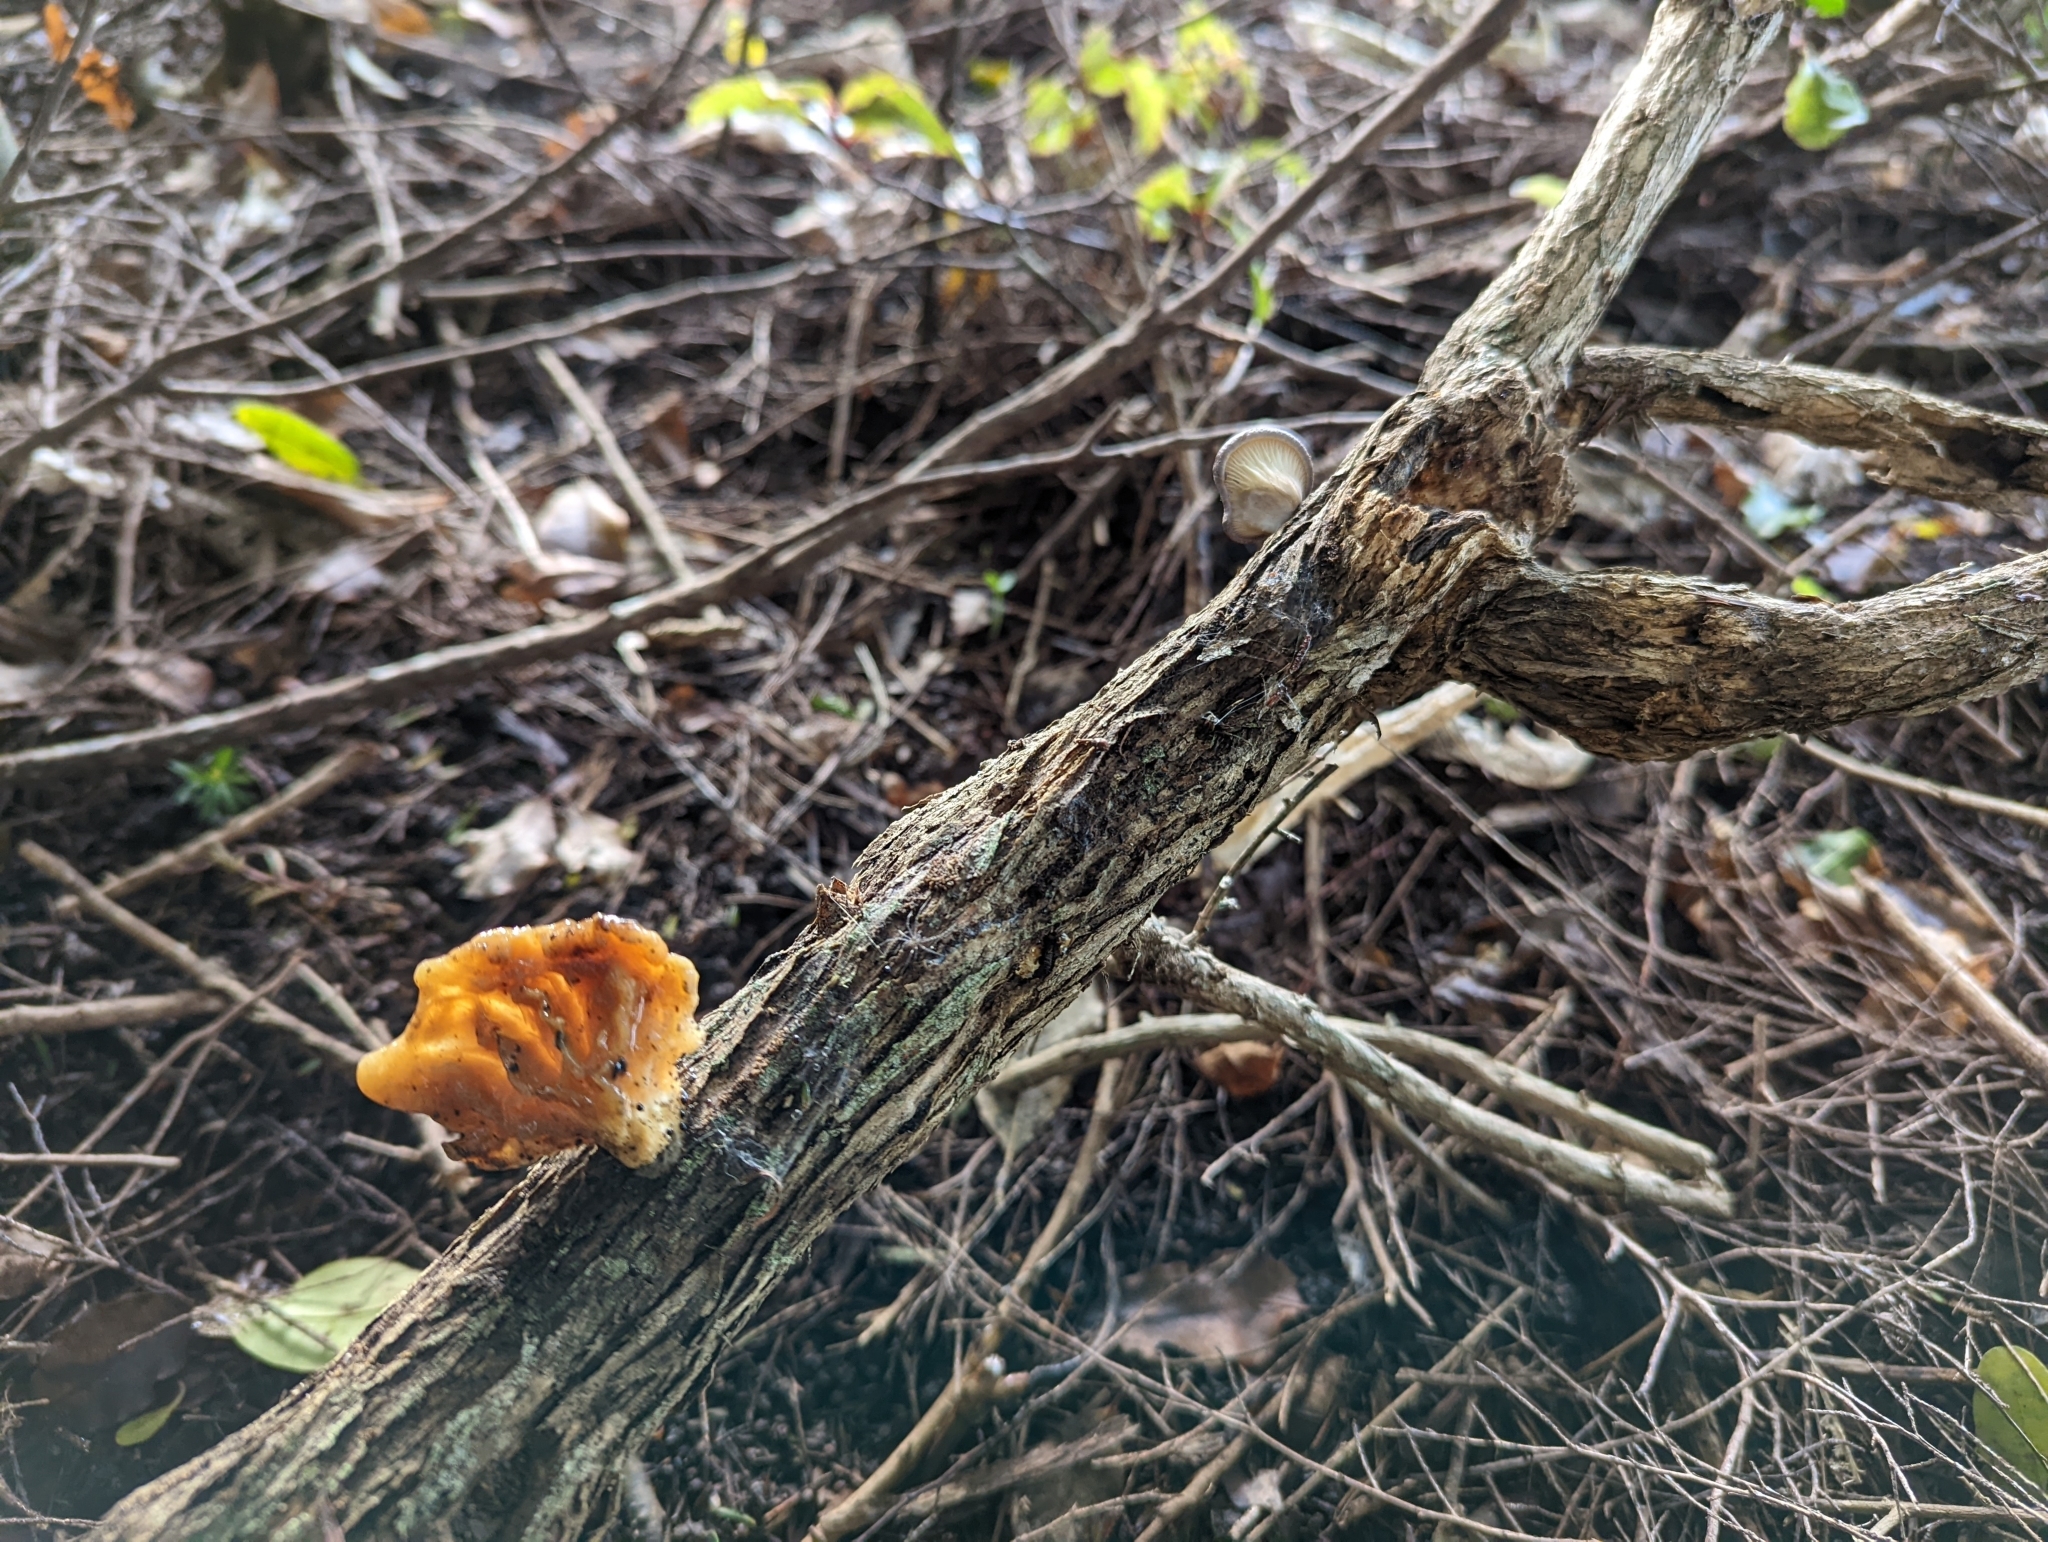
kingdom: Fungi
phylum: Basidiomycota
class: Agaricomycetes
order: Agaricales
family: Pleurotaceae
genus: Pleurotus
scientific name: Pleurotus australis
